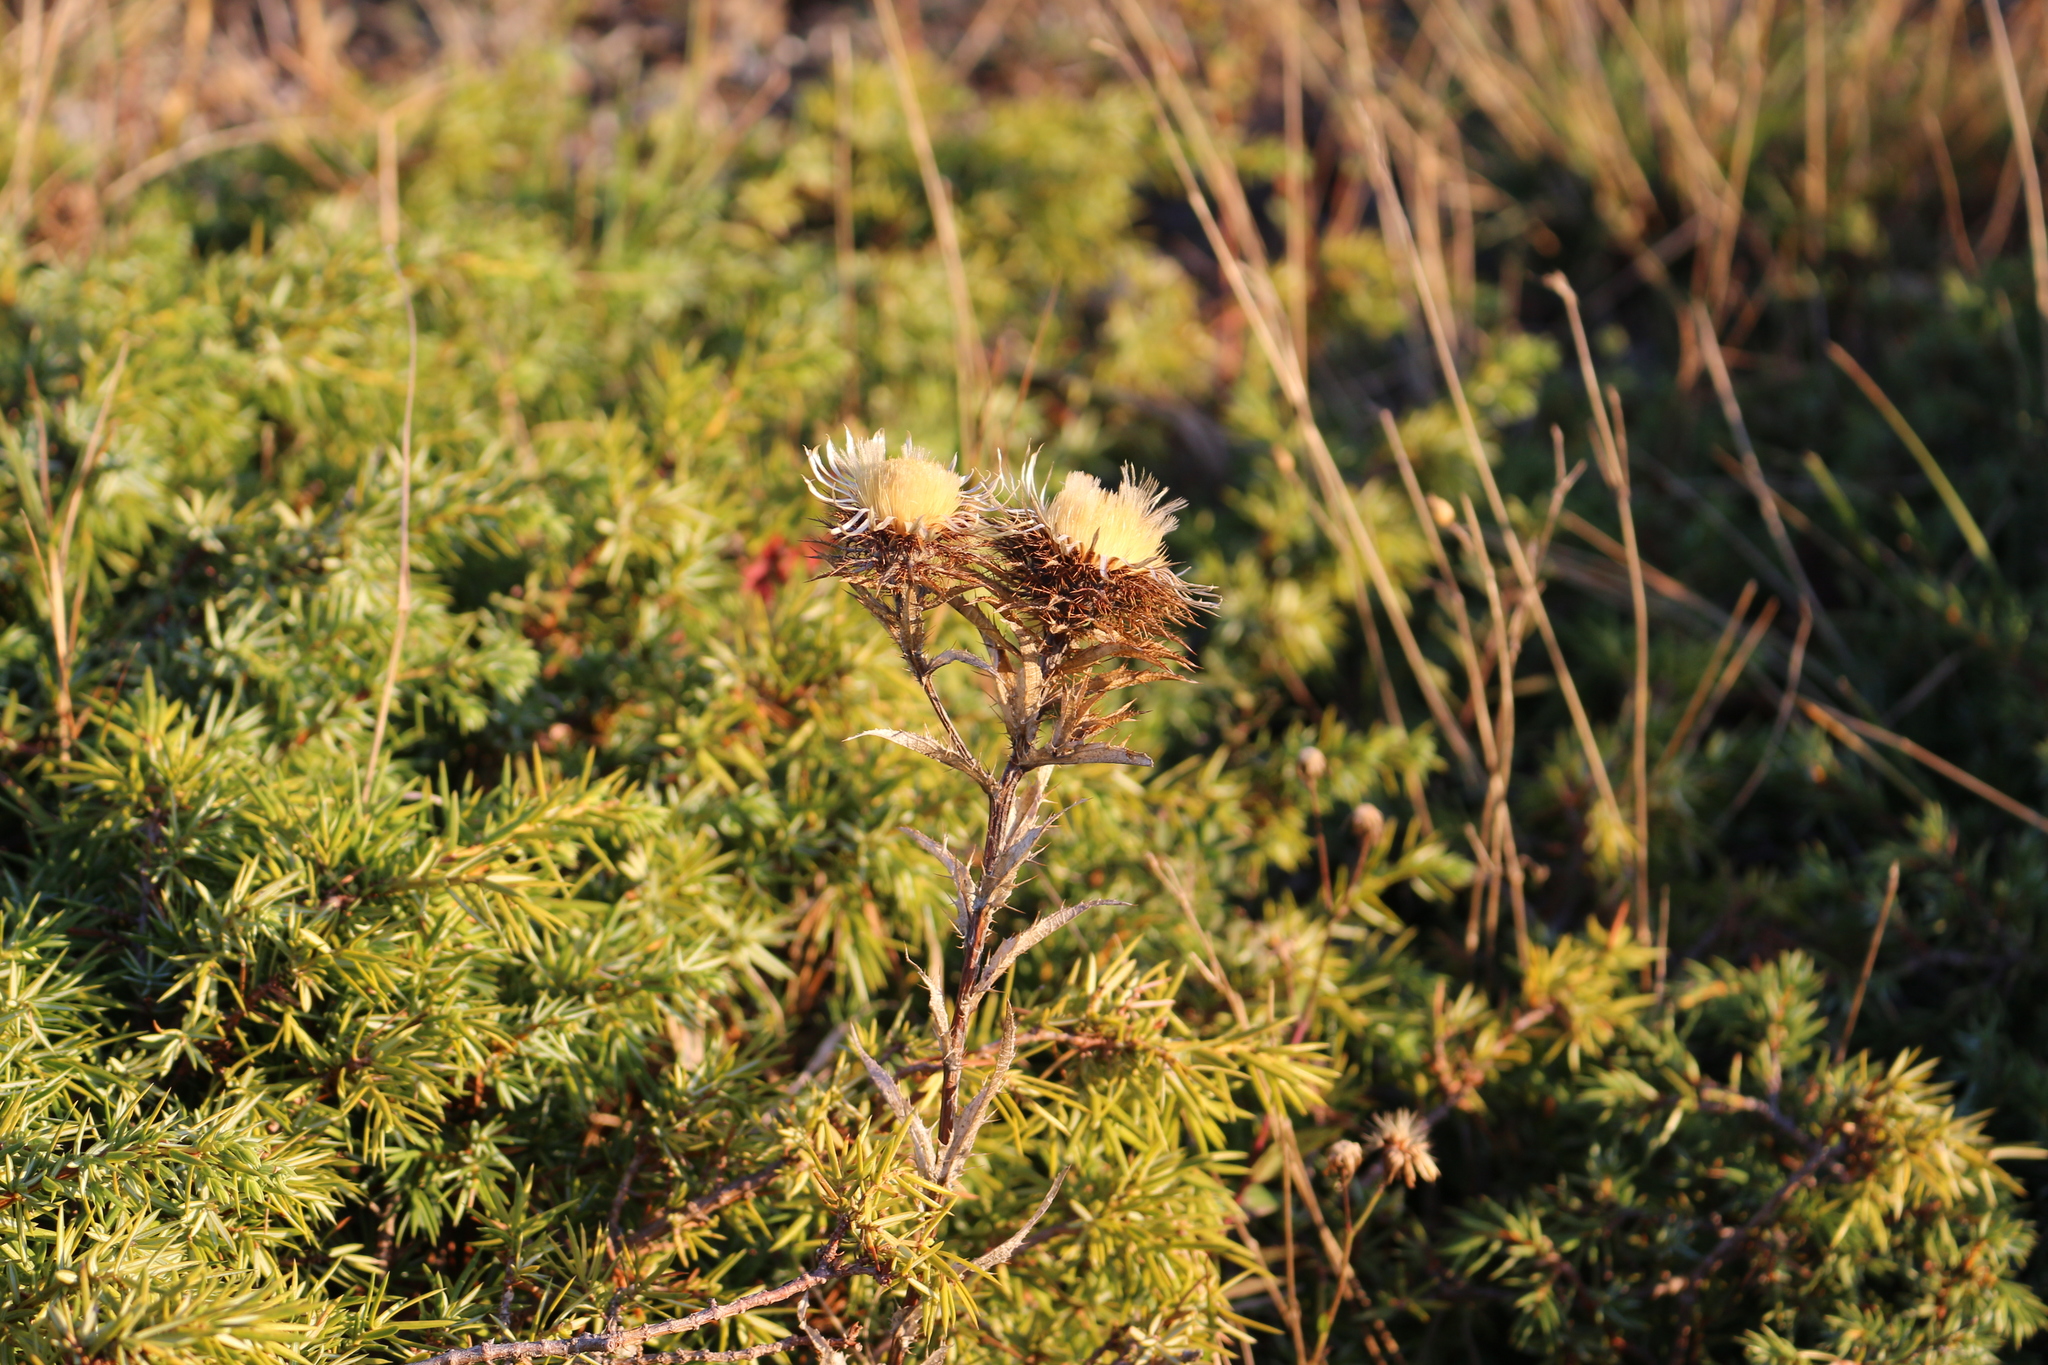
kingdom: Plantae
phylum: Tracheophyta
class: Magnoliopsida
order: Asterales
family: Asteraceae
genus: Carlina
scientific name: Carlina biebersteinii
